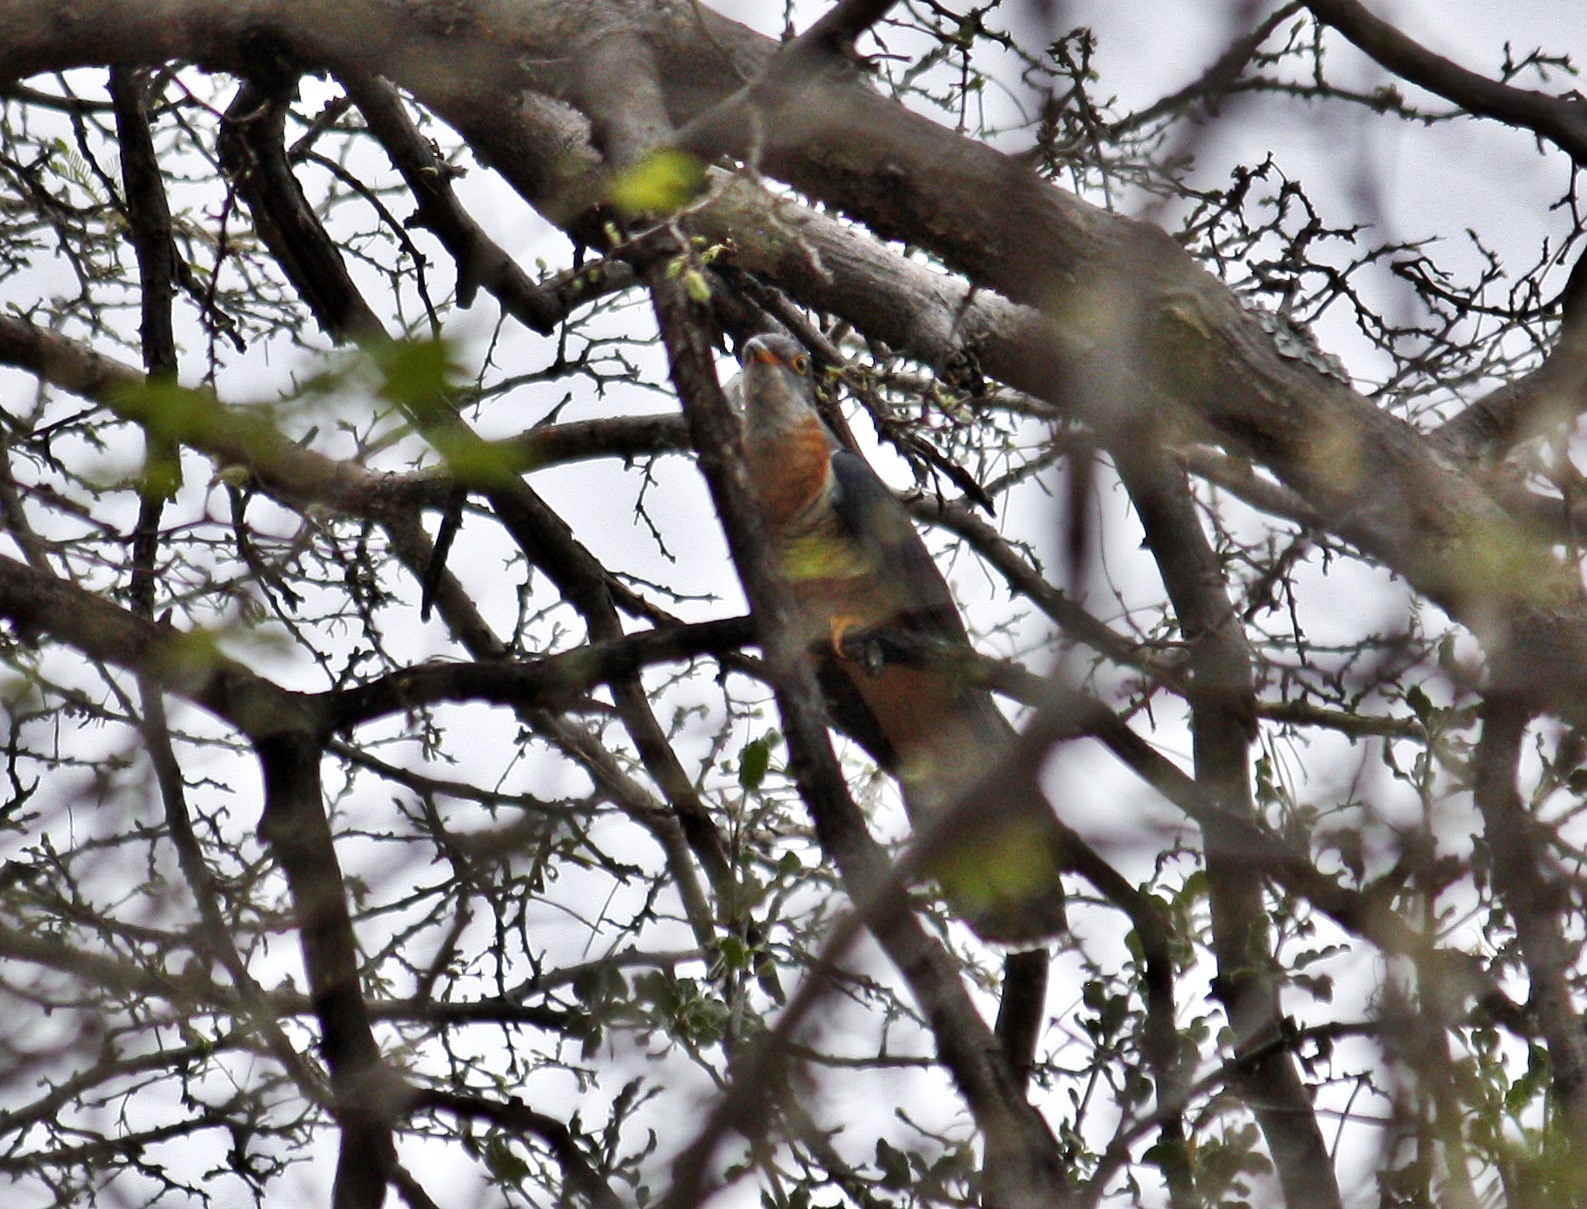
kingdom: Animalia
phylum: Chordata
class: Aves
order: Cuculiformes
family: Cuculidae
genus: Cuculus
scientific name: Cuculus solitarius
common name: Red-chested cuckoo
